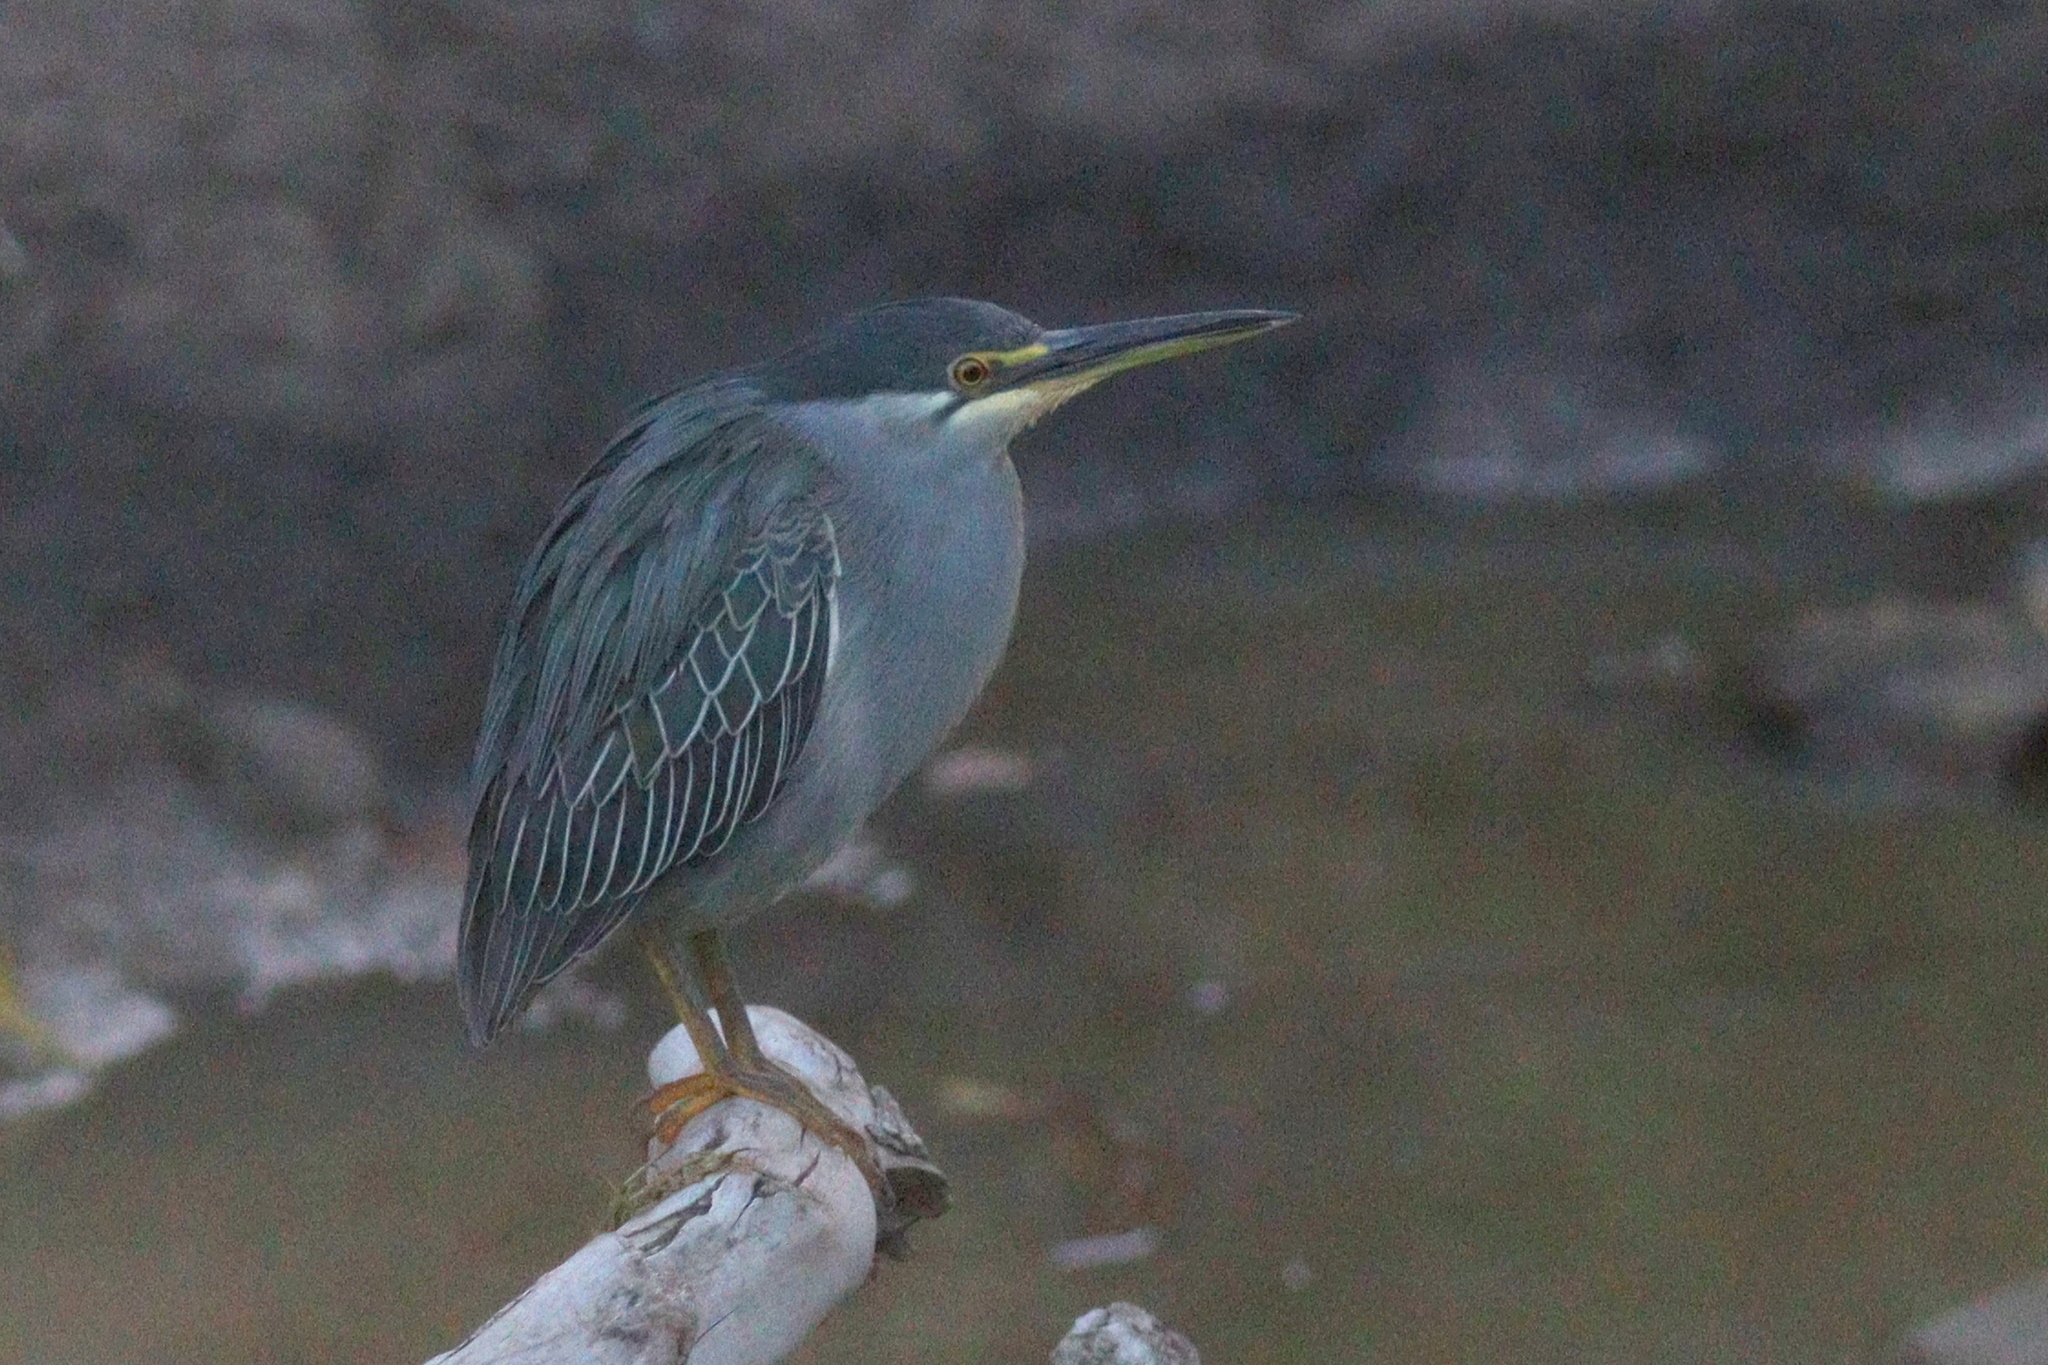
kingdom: Animalia
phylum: Chordata
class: Aves
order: Pelecaniformes
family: Ardeidae
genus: Butorides
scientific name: Butorides striata
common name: Striated heron
